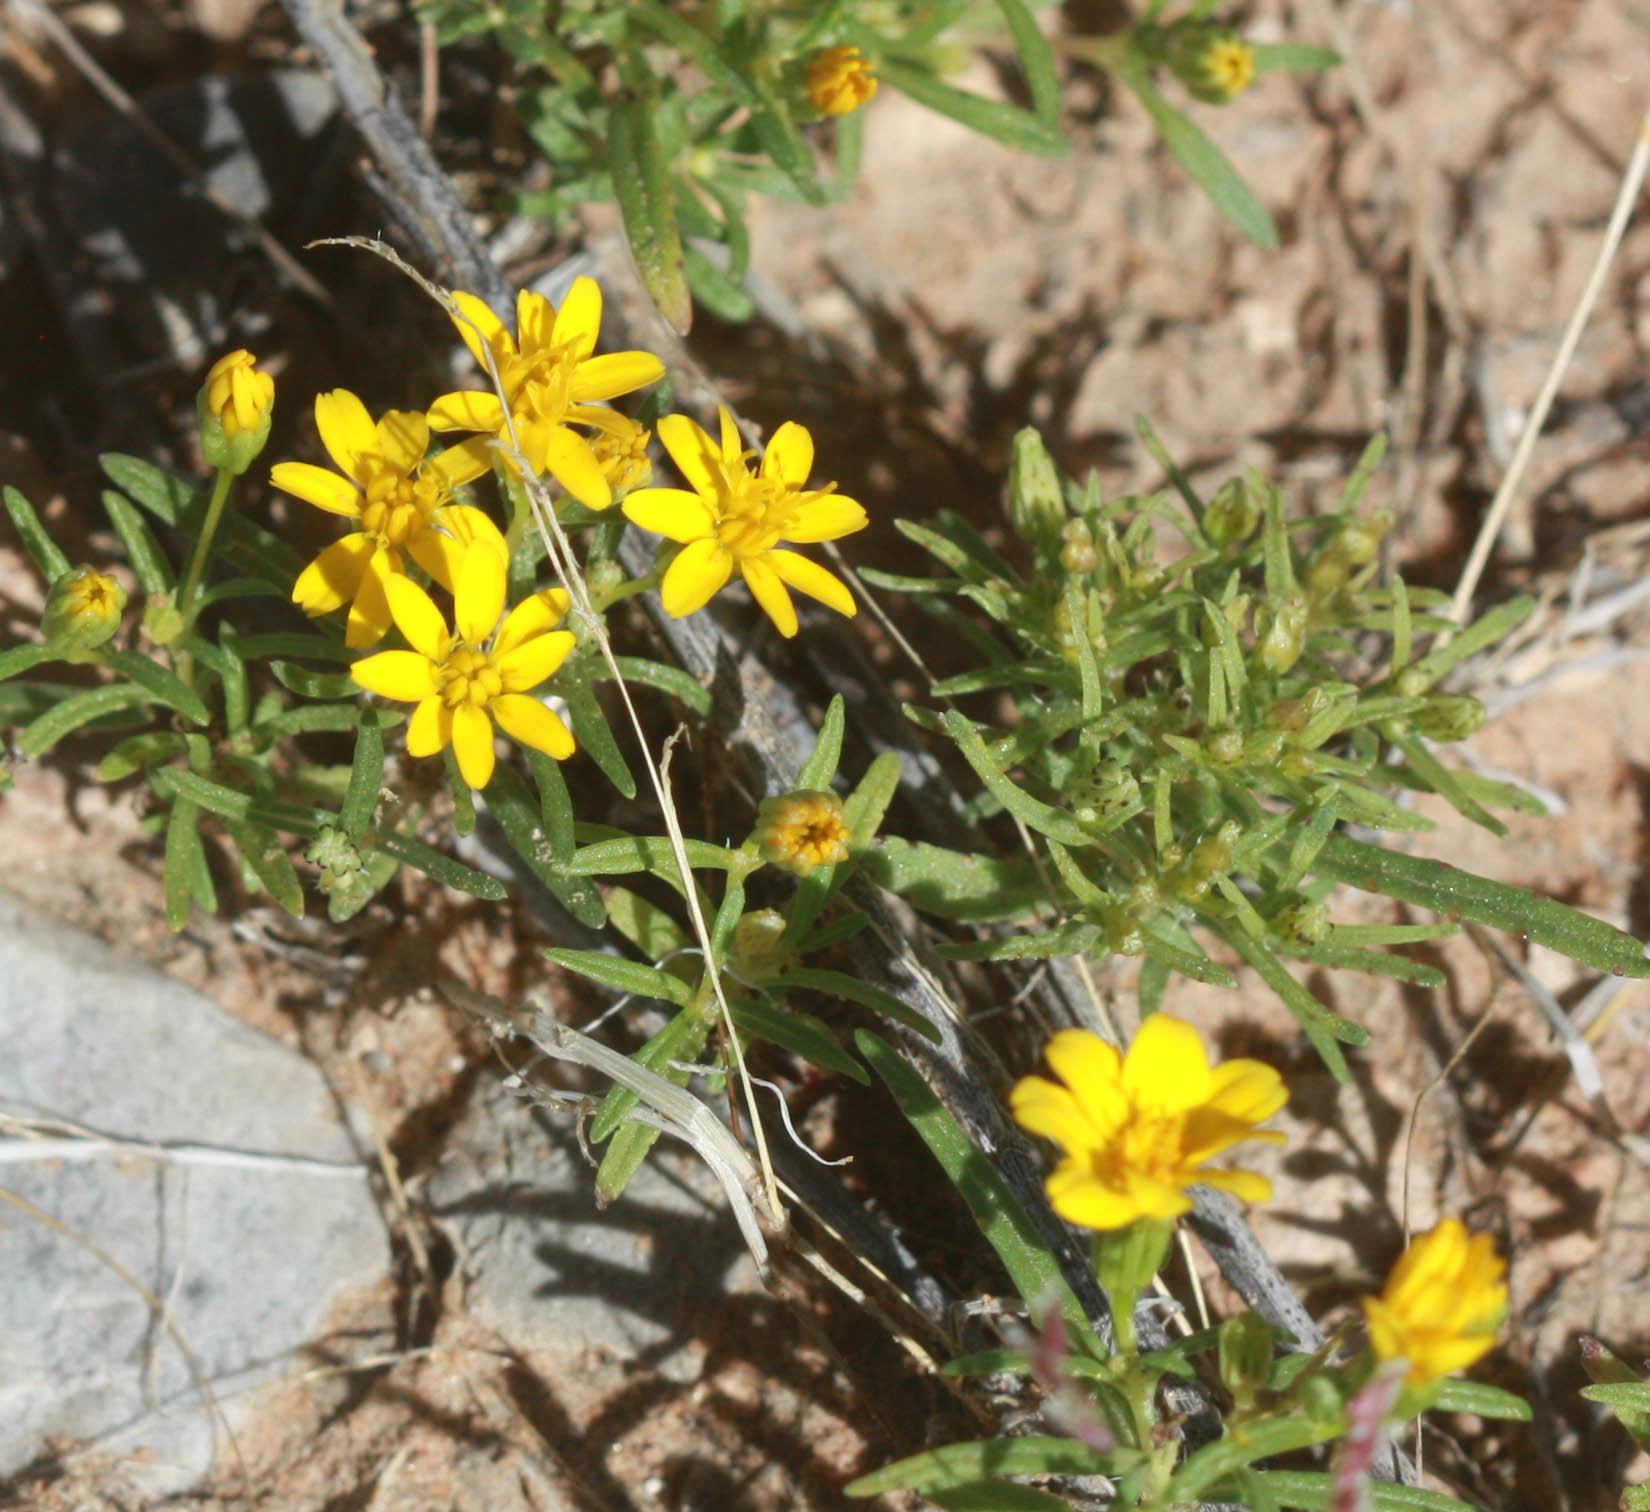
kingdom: Plantae
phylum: Tracheophyta
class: Magnoliopsida
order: Asterales
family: Asteraceae
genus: Pectis
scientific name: Pectis papposa
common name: Many-bristle chinchweed
